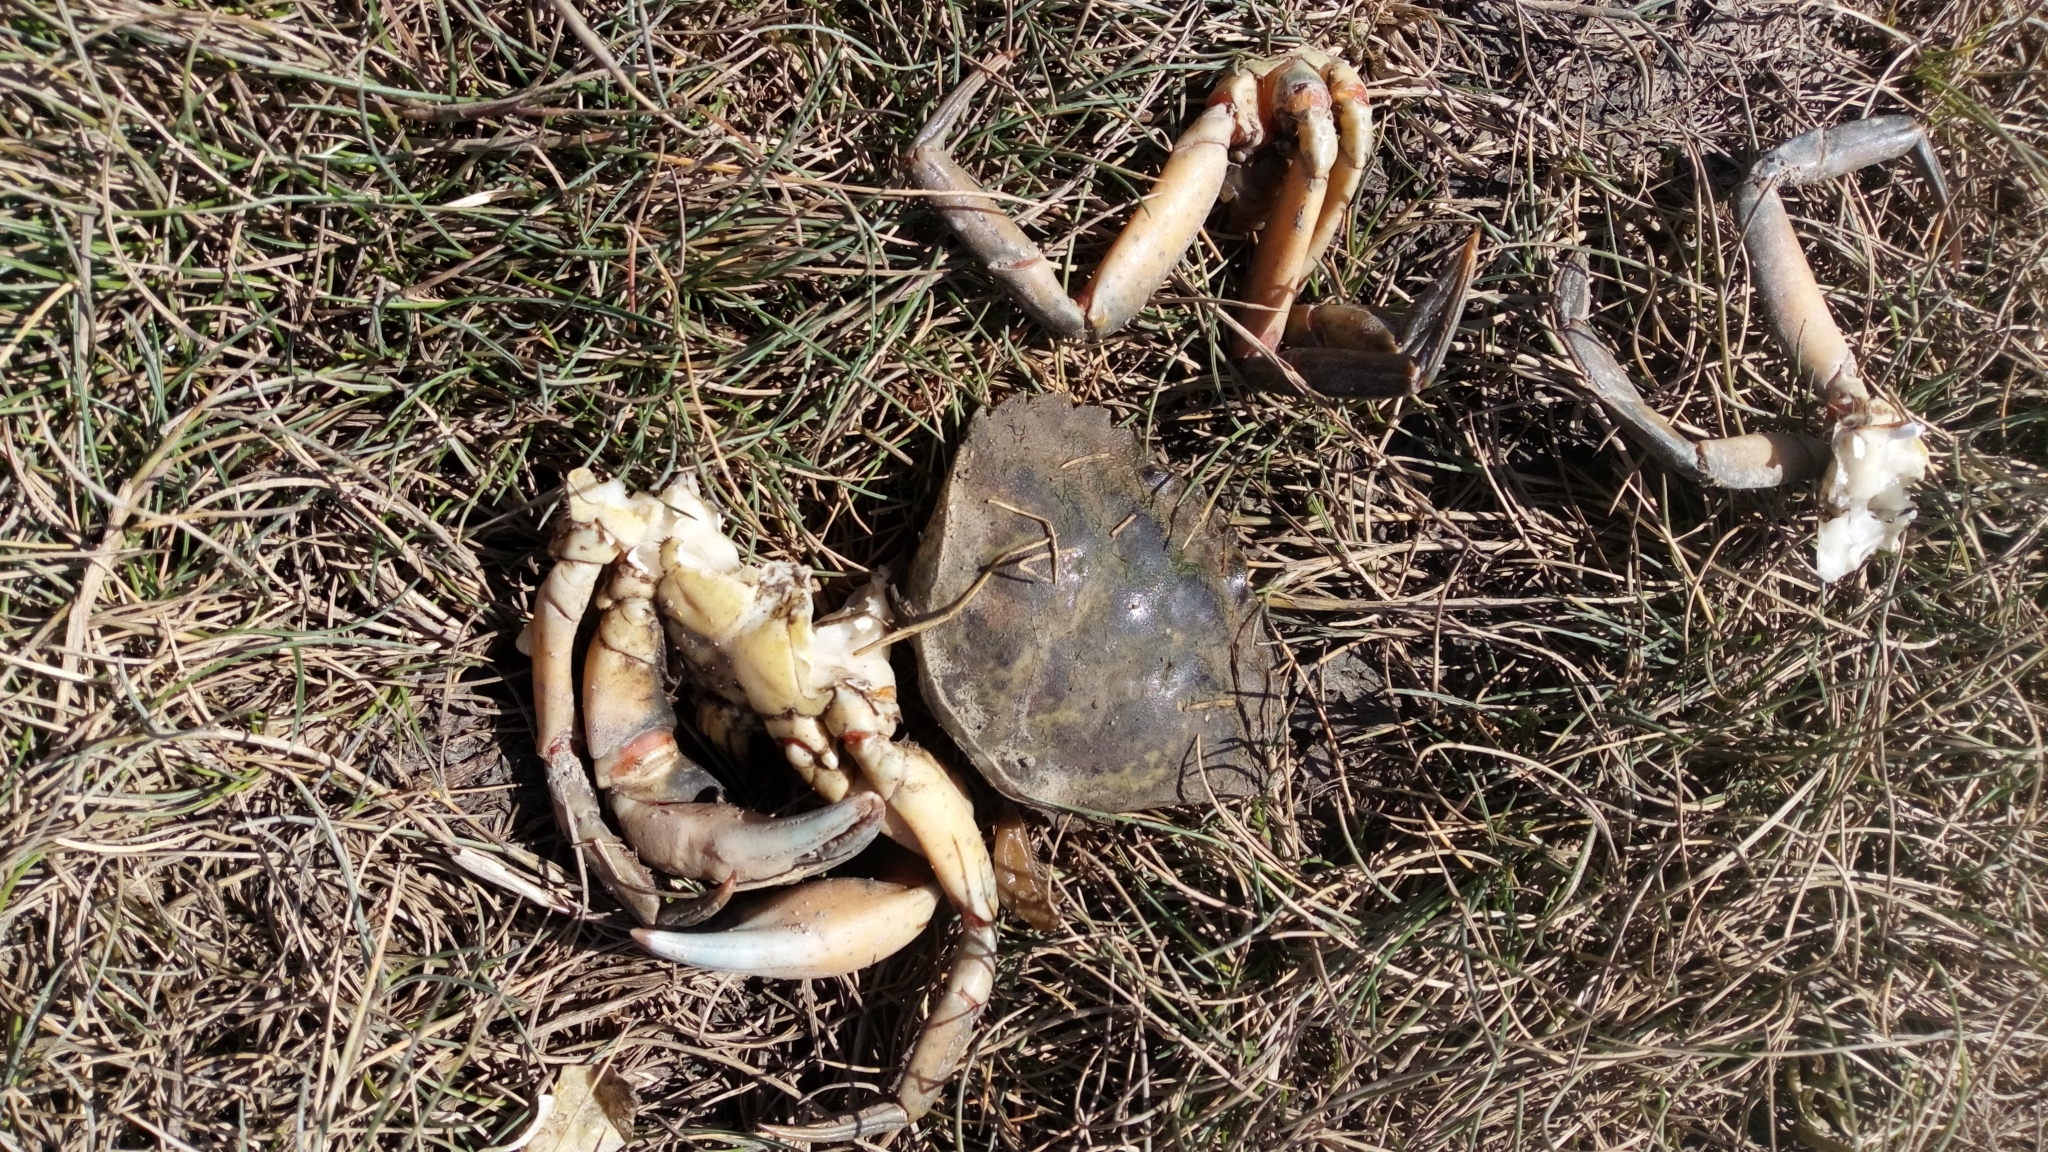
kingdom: Animalia
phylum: Arthropoda
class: Malacostraca
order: Decapoda
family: Carcinidae
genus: Carcinus
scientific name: Carcinus maenas
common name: European green crab
